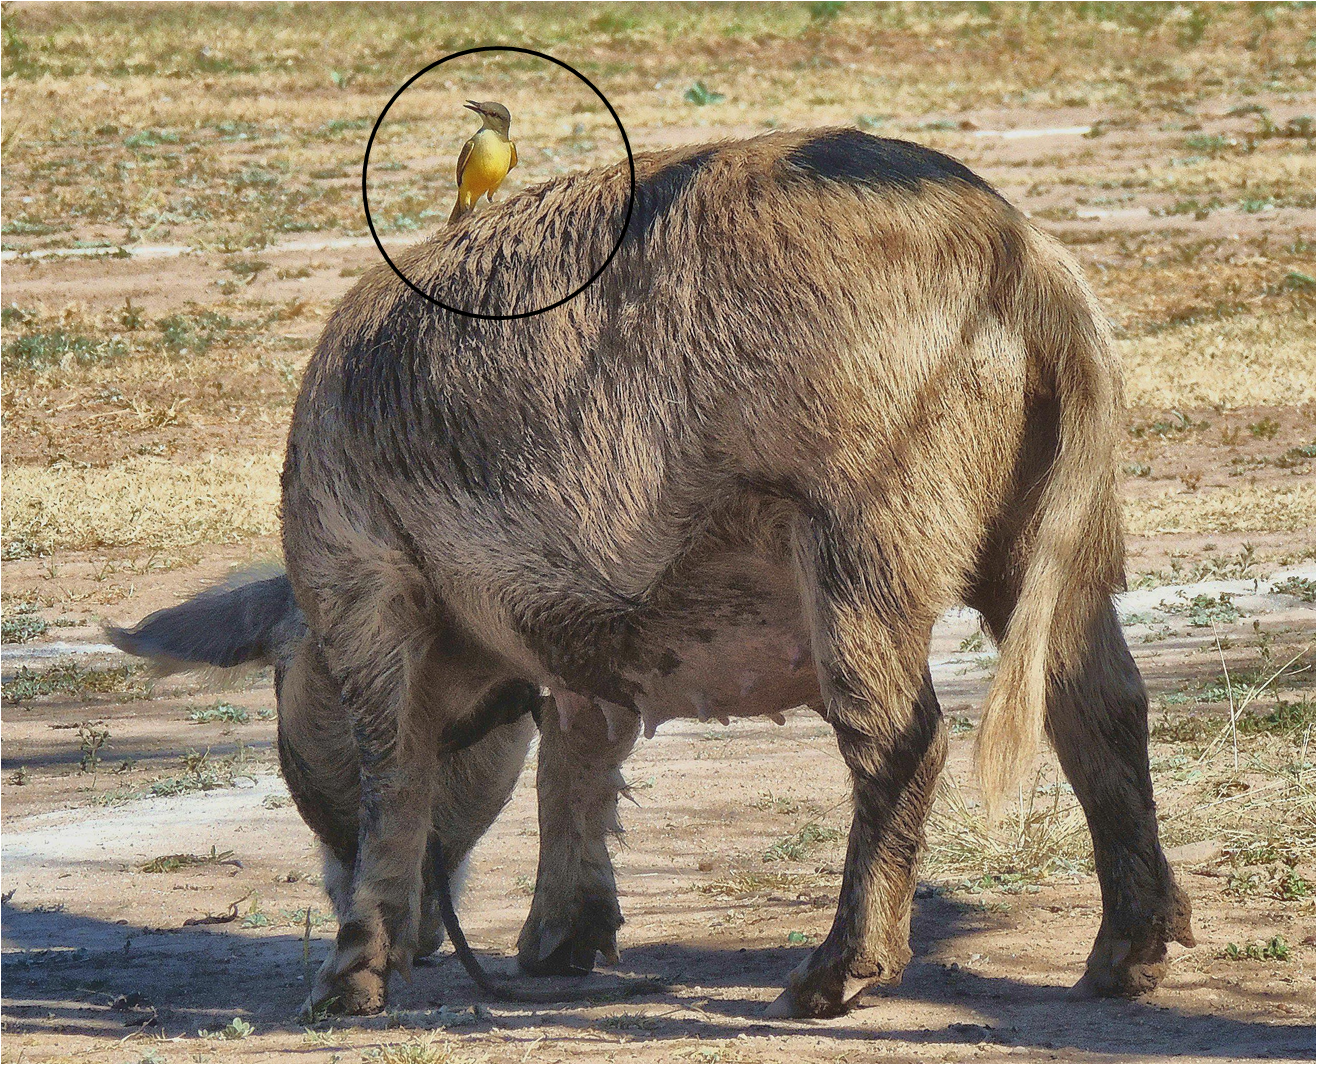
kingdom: Animalia
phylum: Chordata
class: Aves
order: Passeriformes
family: Tyrannidae
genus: Machetornis
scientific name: Machetornis rixosa
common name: Cattle tyrant
